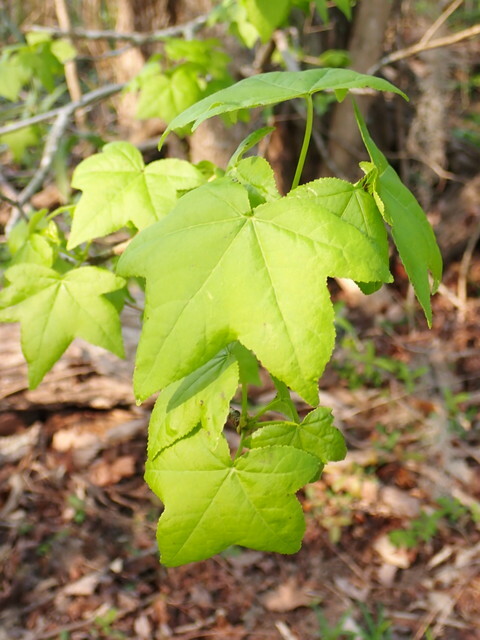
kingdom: Plantae
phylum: Tracheophyta
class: Magnoliopsida
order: Saxifragales
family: Altingiaceae
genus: Liquidambar
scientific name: Liquidambar styraciflua
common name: Sweet gum
